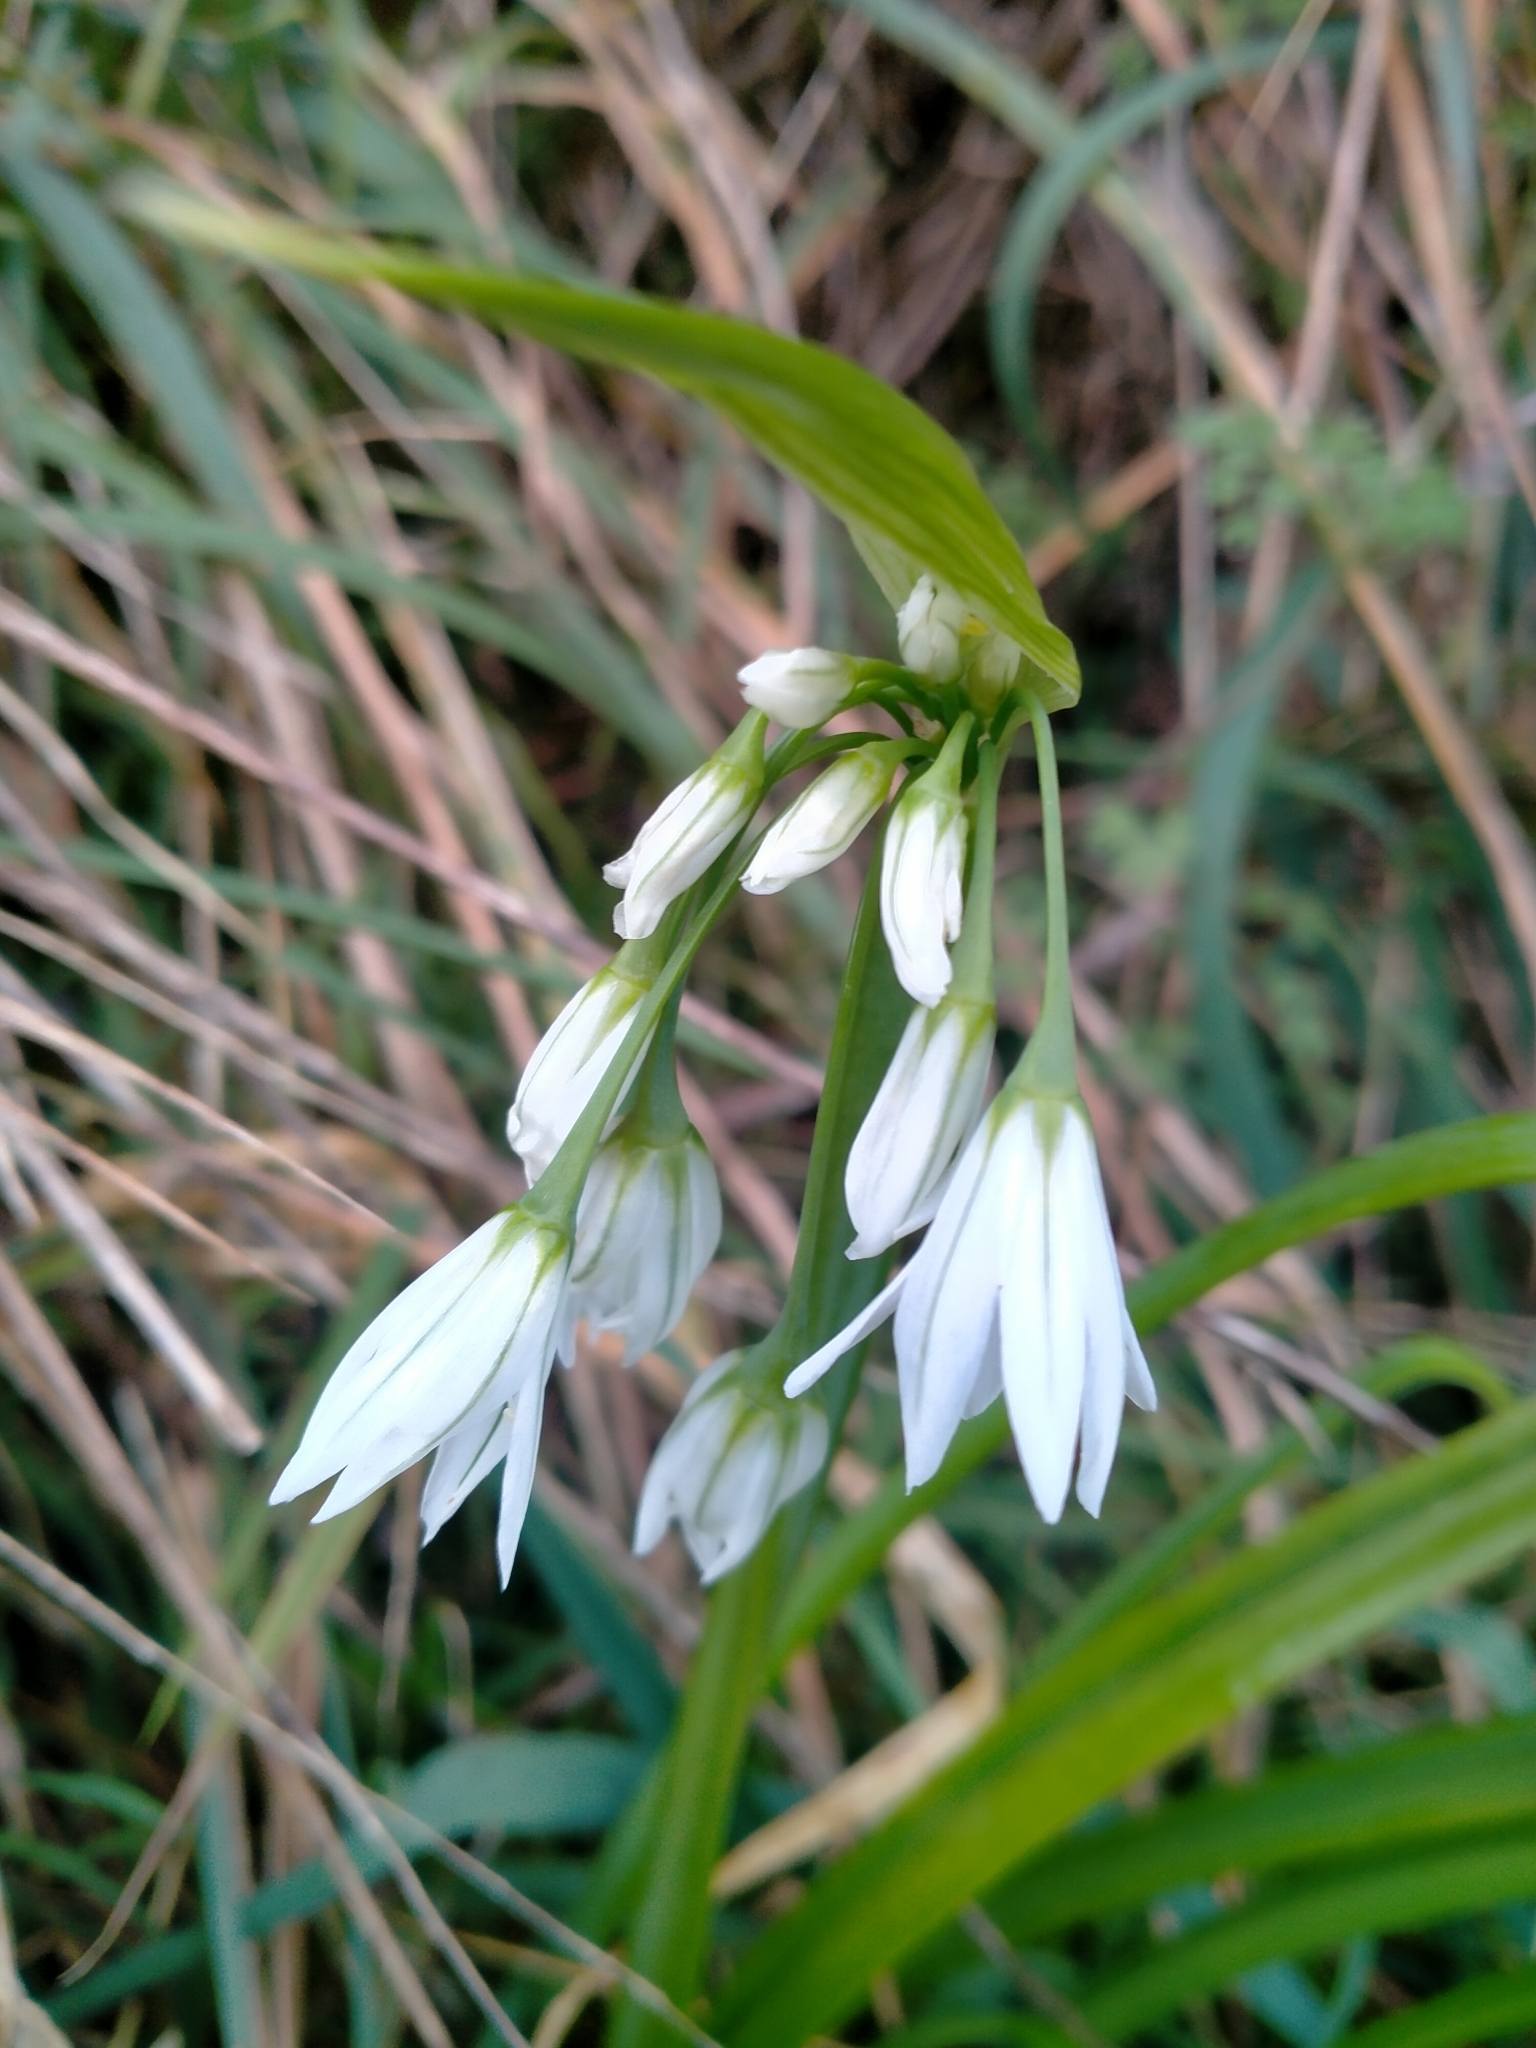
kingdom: Plantae
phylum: Tracheophyta
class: Liliopsida
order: Asparagales
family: Amaryllidaceae
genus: Allium
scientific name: Allium triquetrum
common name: Three-cornered garlic
